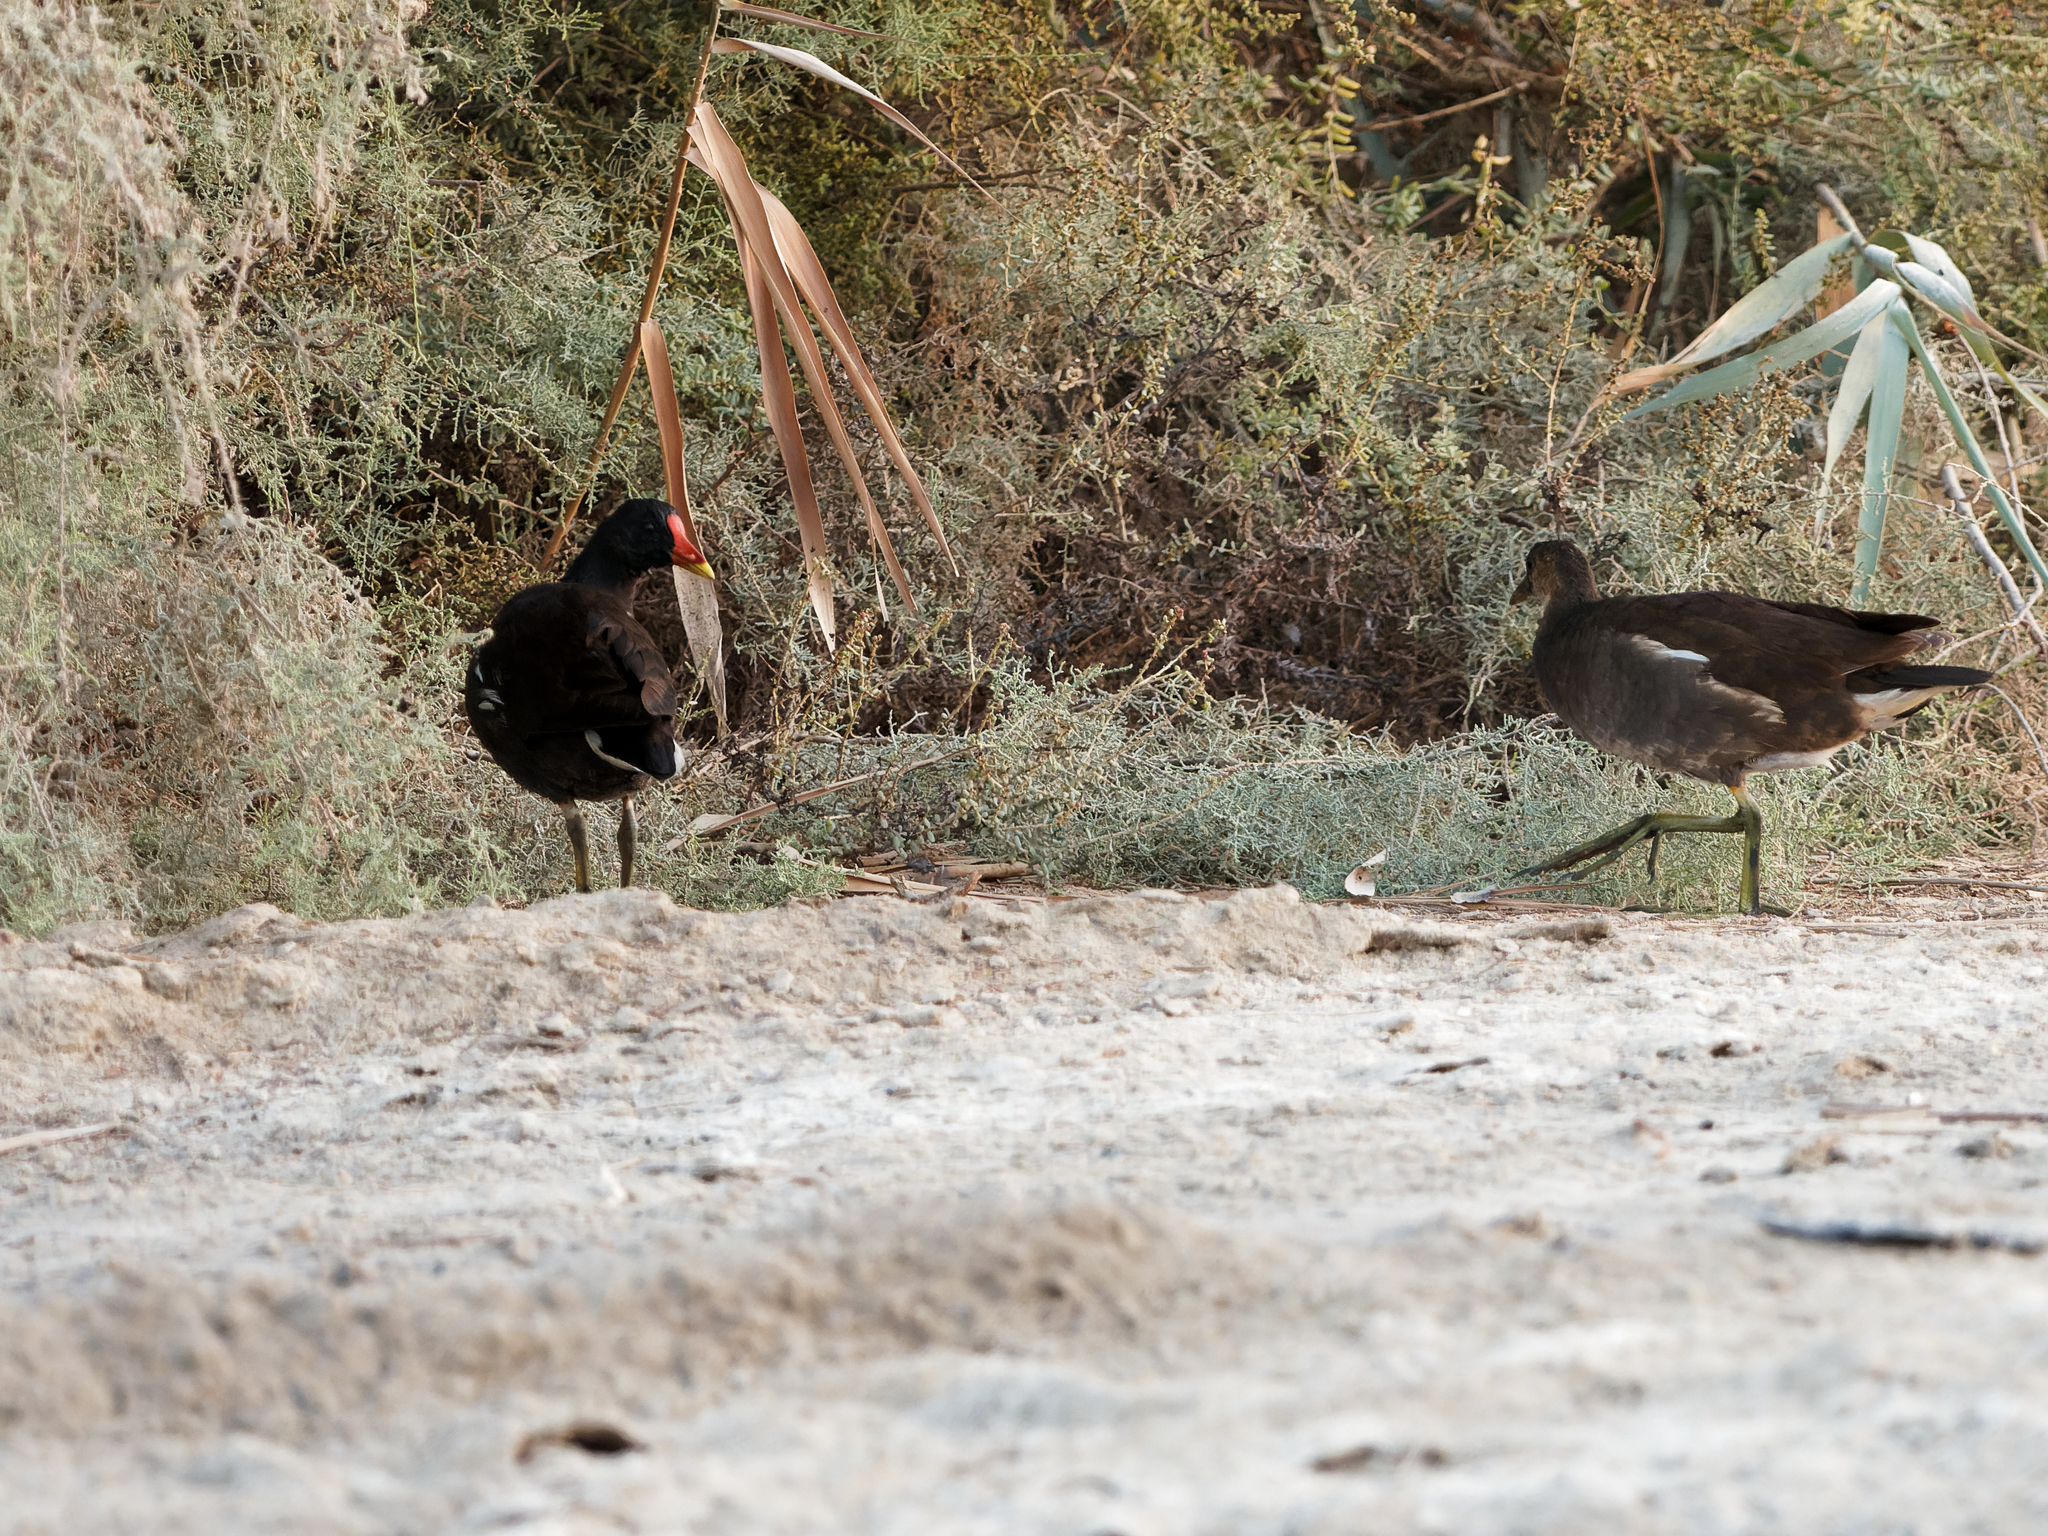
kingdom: Animalia
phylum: Chordata
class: Aves
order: Gruiformes
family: Rallidae
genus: Gallinula
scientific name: Gallinula chloropus
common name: Common moorhen
